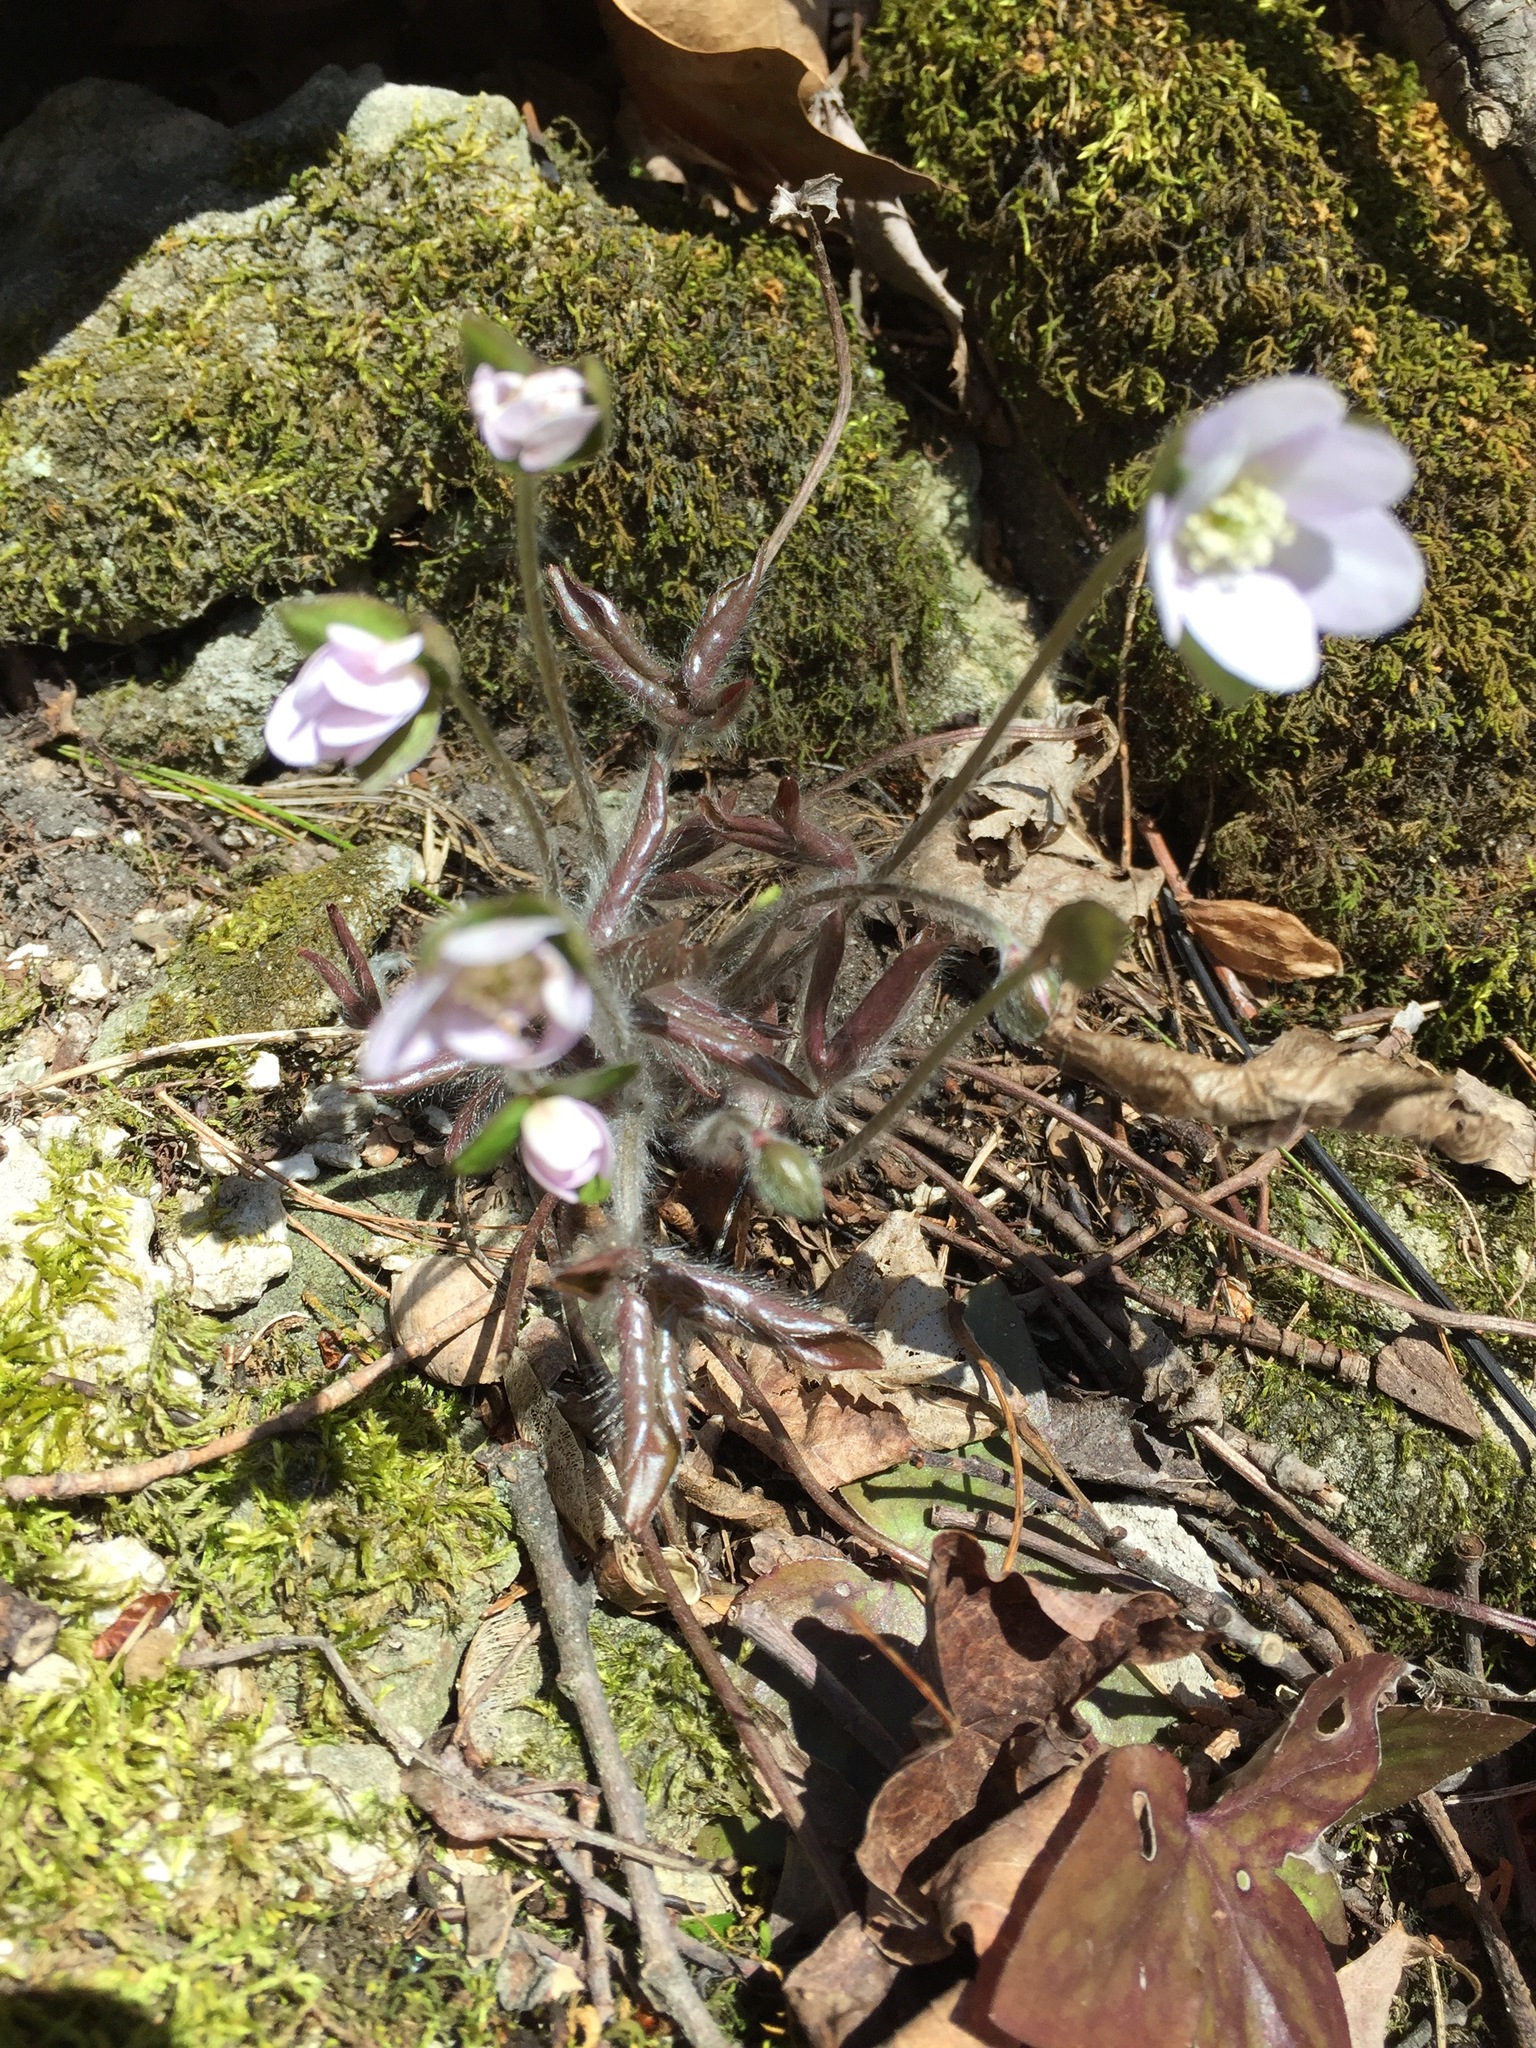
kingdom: Plantae
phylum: Tracheophyta
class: Magnoliopsida
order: Ranunculales
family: Ranunculaceae
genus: Hepatica
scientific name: Hepatica acutiloba
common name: Sharp-lobed hepatica
